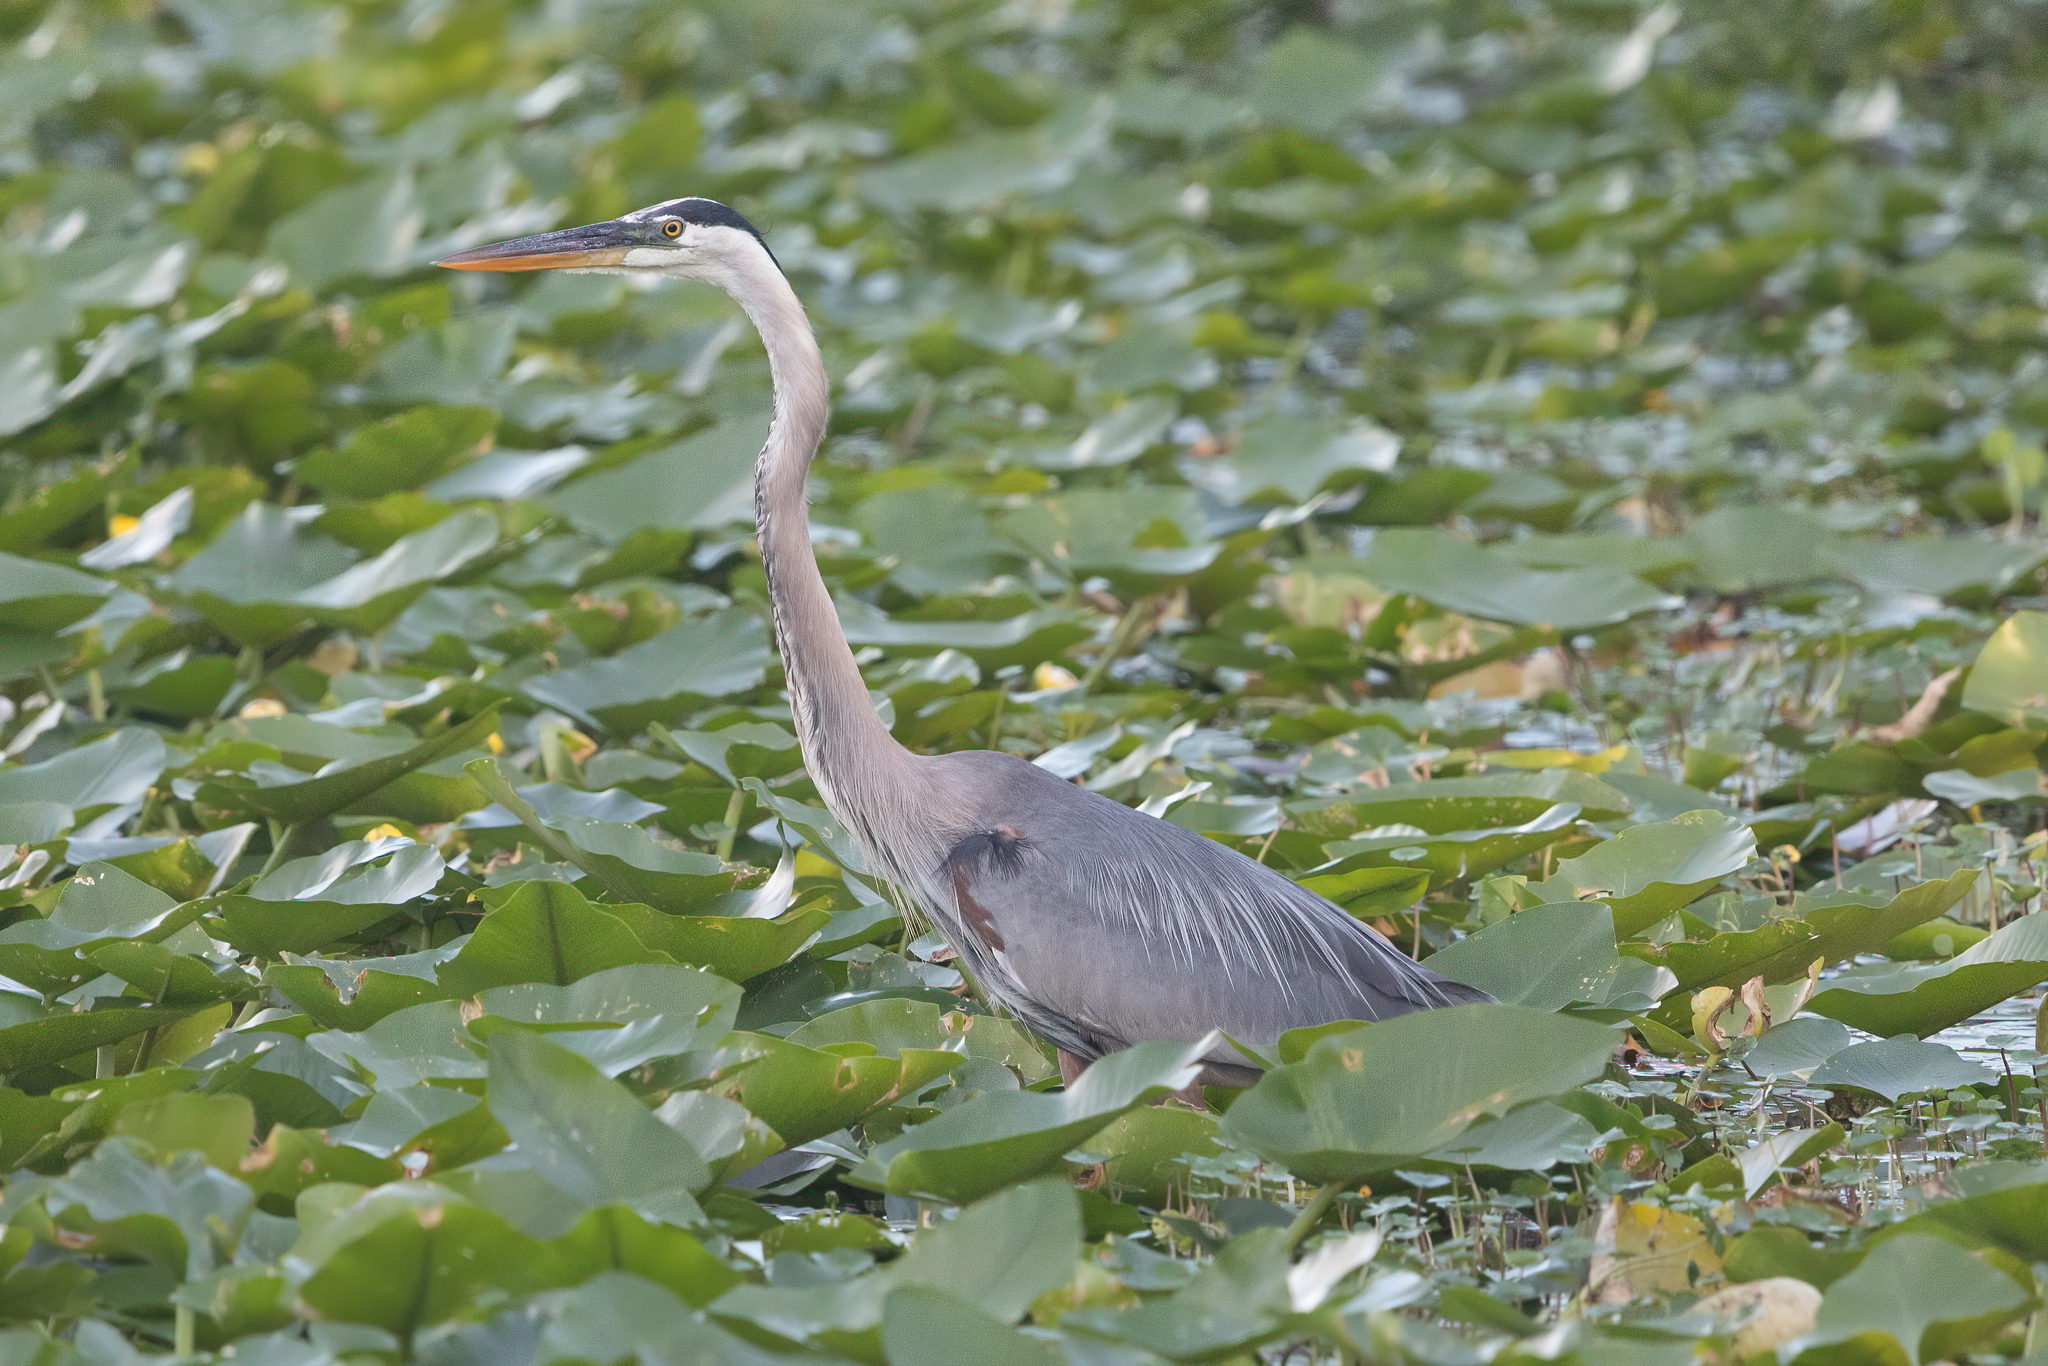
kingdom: Animalia
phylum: Chordata
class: Aves
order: Pelecaniformes
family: Ardeidae
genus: Ardea
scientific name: Ardea herodias
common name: Great blue heron
